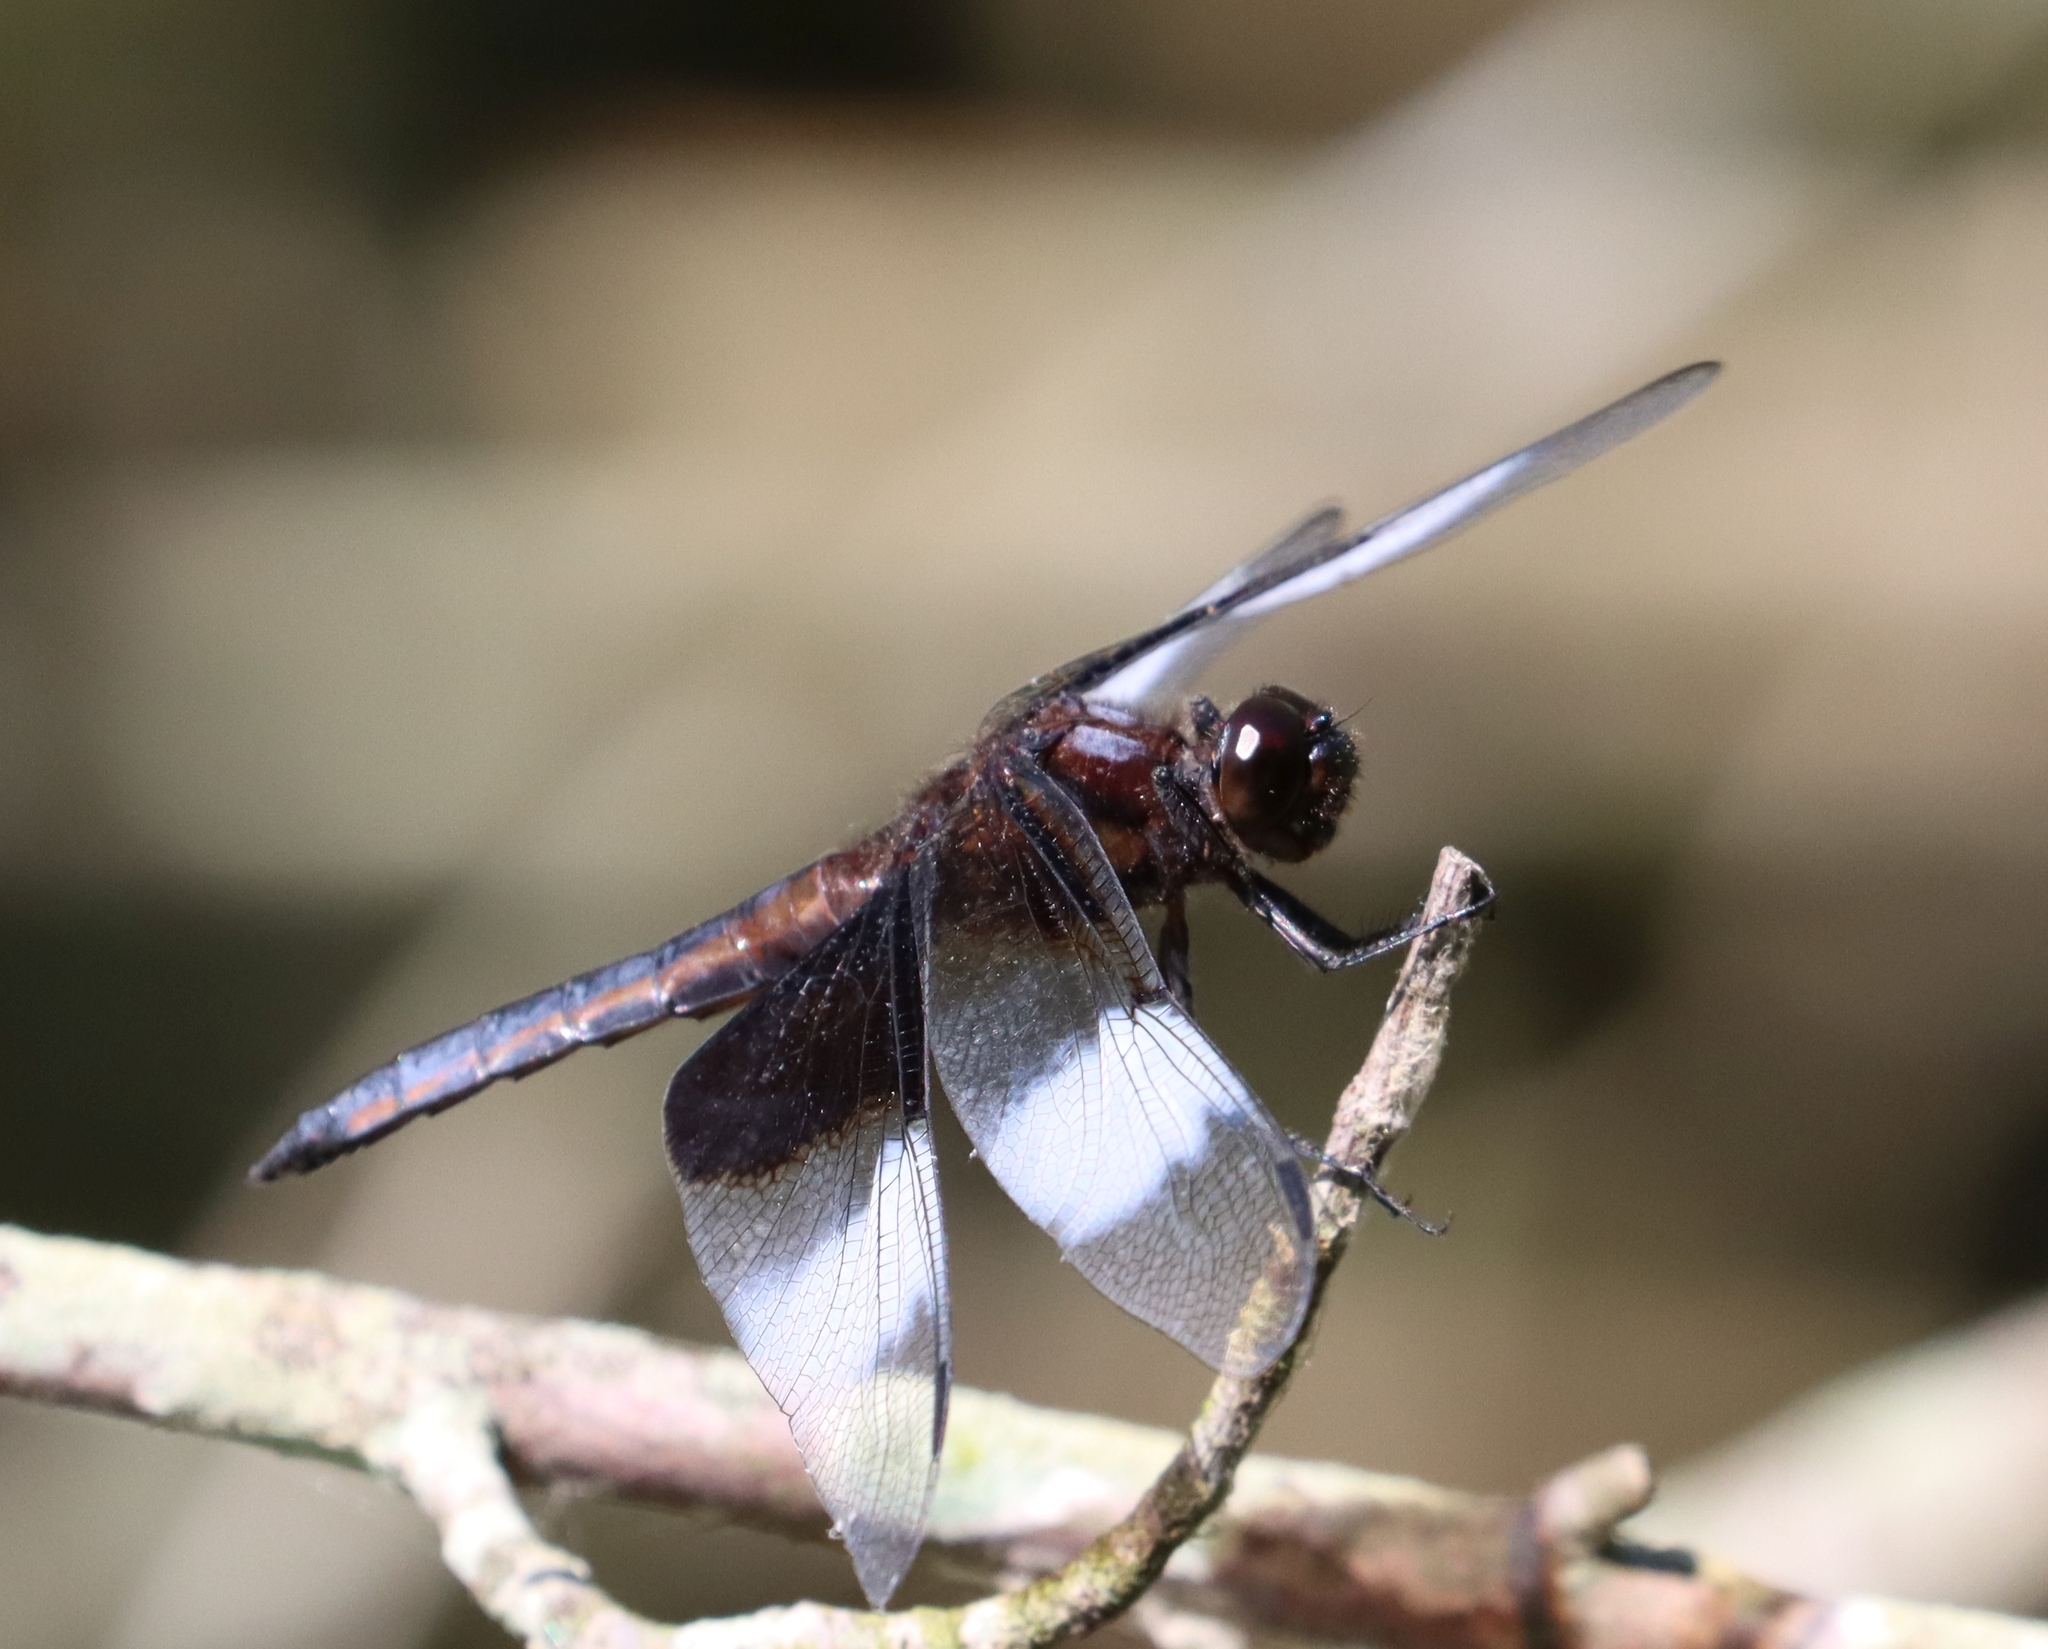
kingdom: Animalia
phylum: Arthropoda
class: Insecta
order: Odonata
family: Libellulidae
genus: Libellula
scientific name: Libellula luctuosa
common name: Widow skimmer
